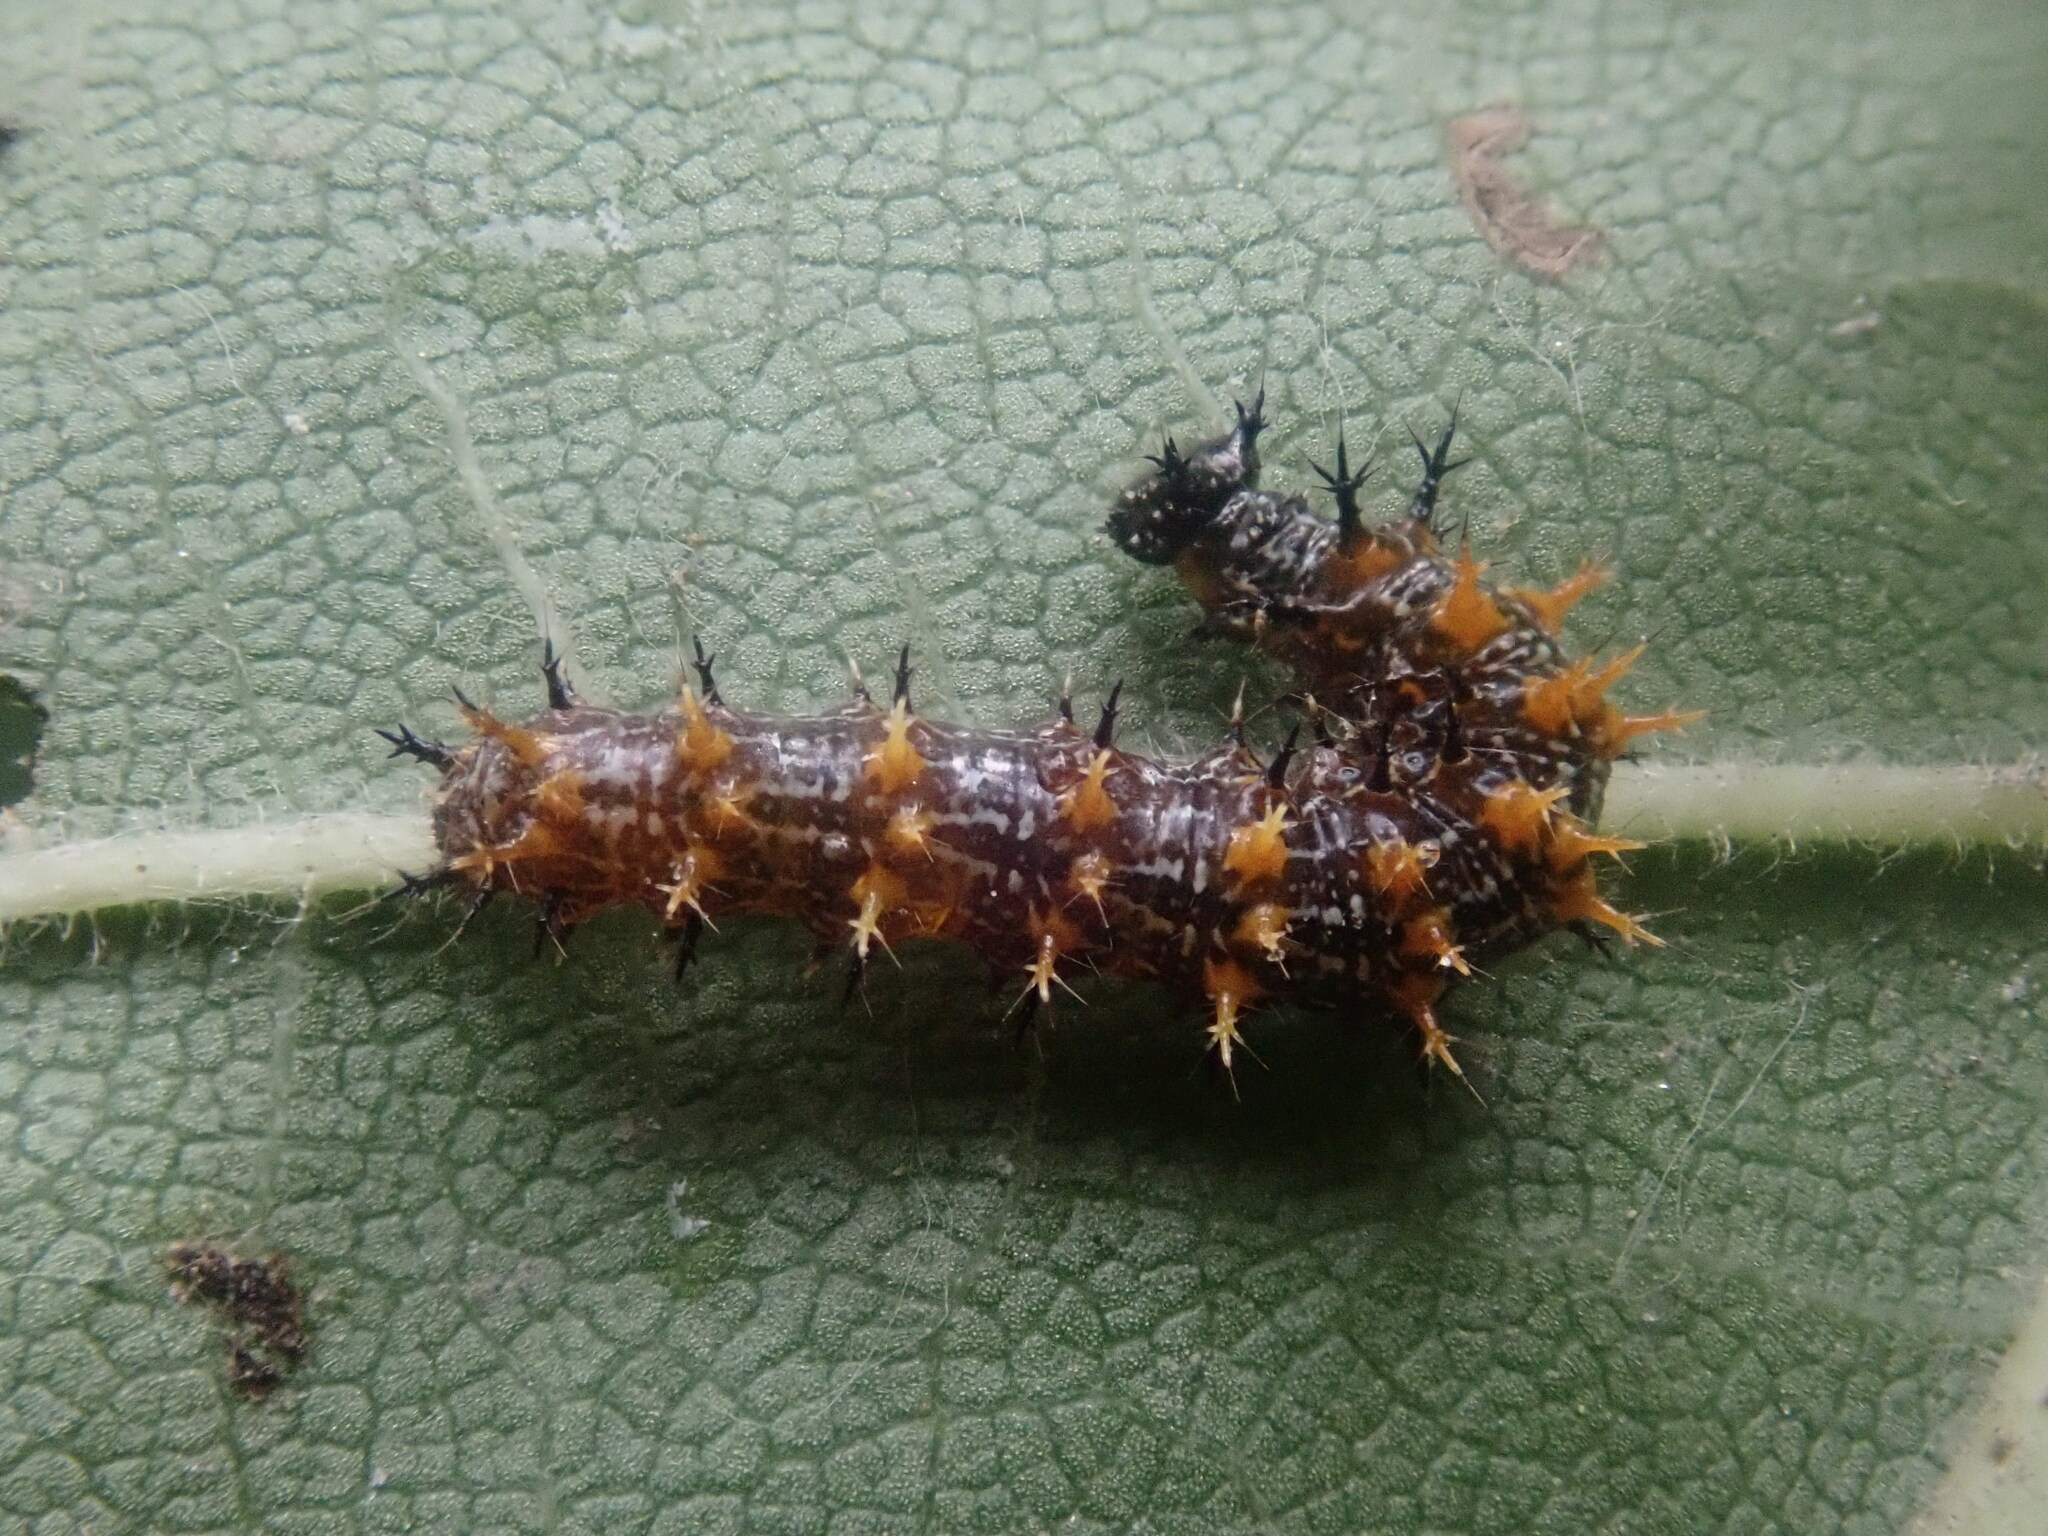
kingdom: Animalia
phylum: Arthropoda
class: Insecta
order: Lepidoptera
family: Nymphalidae
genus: Polygonia
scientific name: Polygonia interrogationis
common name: Question mark
